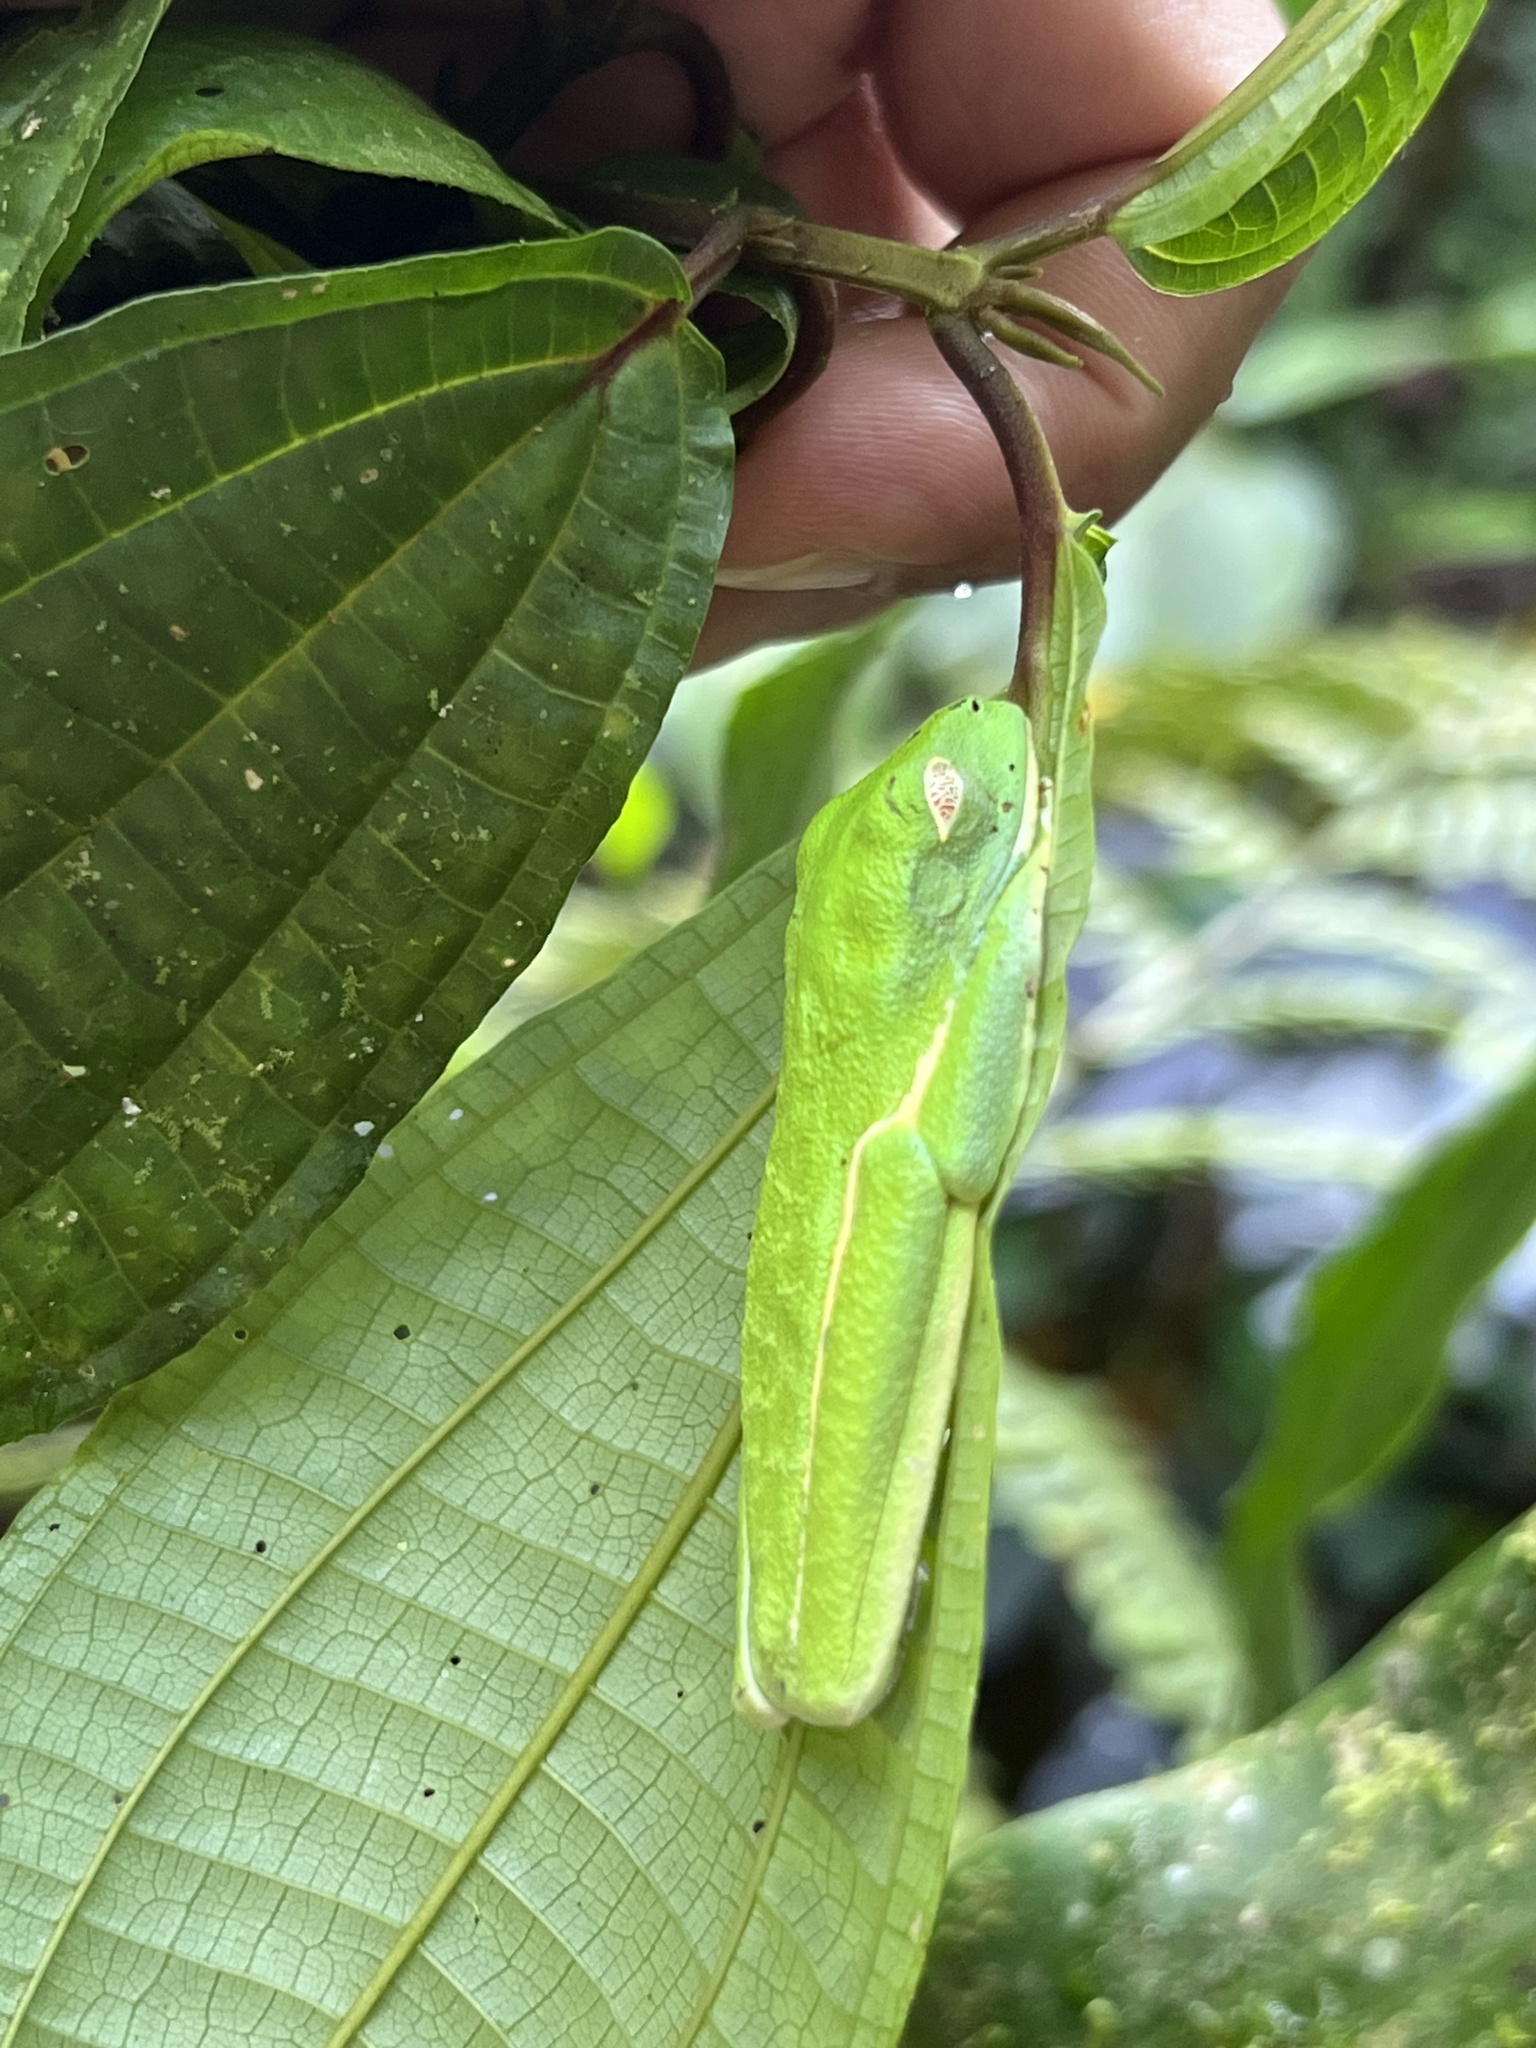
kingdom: Animalia
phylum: Chordata
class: Amphibia
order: Anura
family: Phyllomedusidae
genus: Agalychnis
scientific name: Agalychnis callidryas
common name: Red-eyed treefrog
